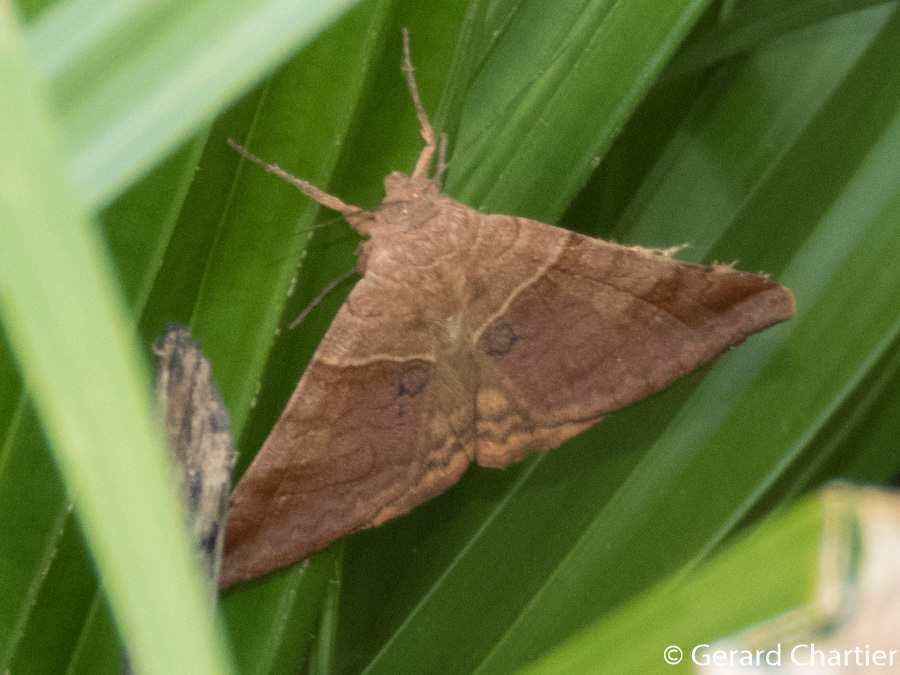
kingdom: Animalia
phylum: Arthropoda
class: Insecta
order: Lepidoptera
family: Erebidae
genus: Mocis
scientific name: Mocis undata
